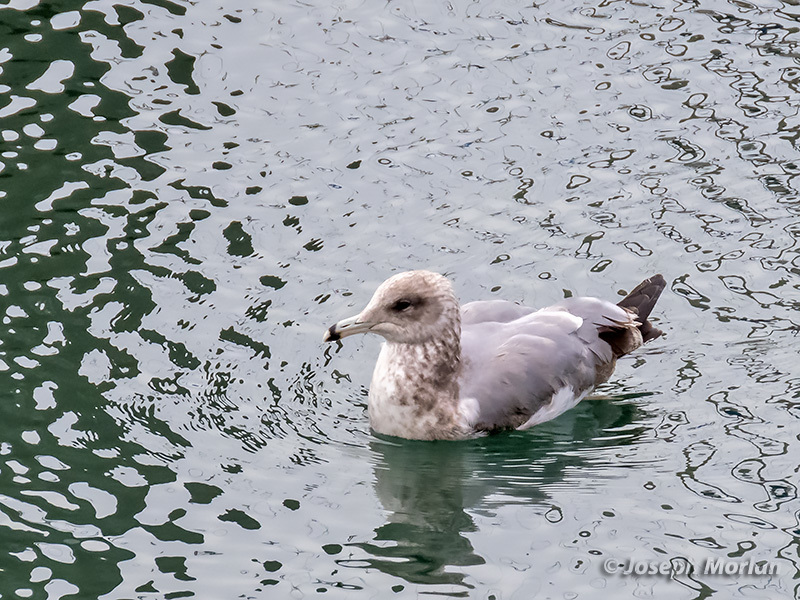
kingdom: Animalia
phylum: Chordata
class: Aves
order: Charadriiformes
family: Laridae
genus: Larus
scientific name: Larus californicus
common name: California gull
